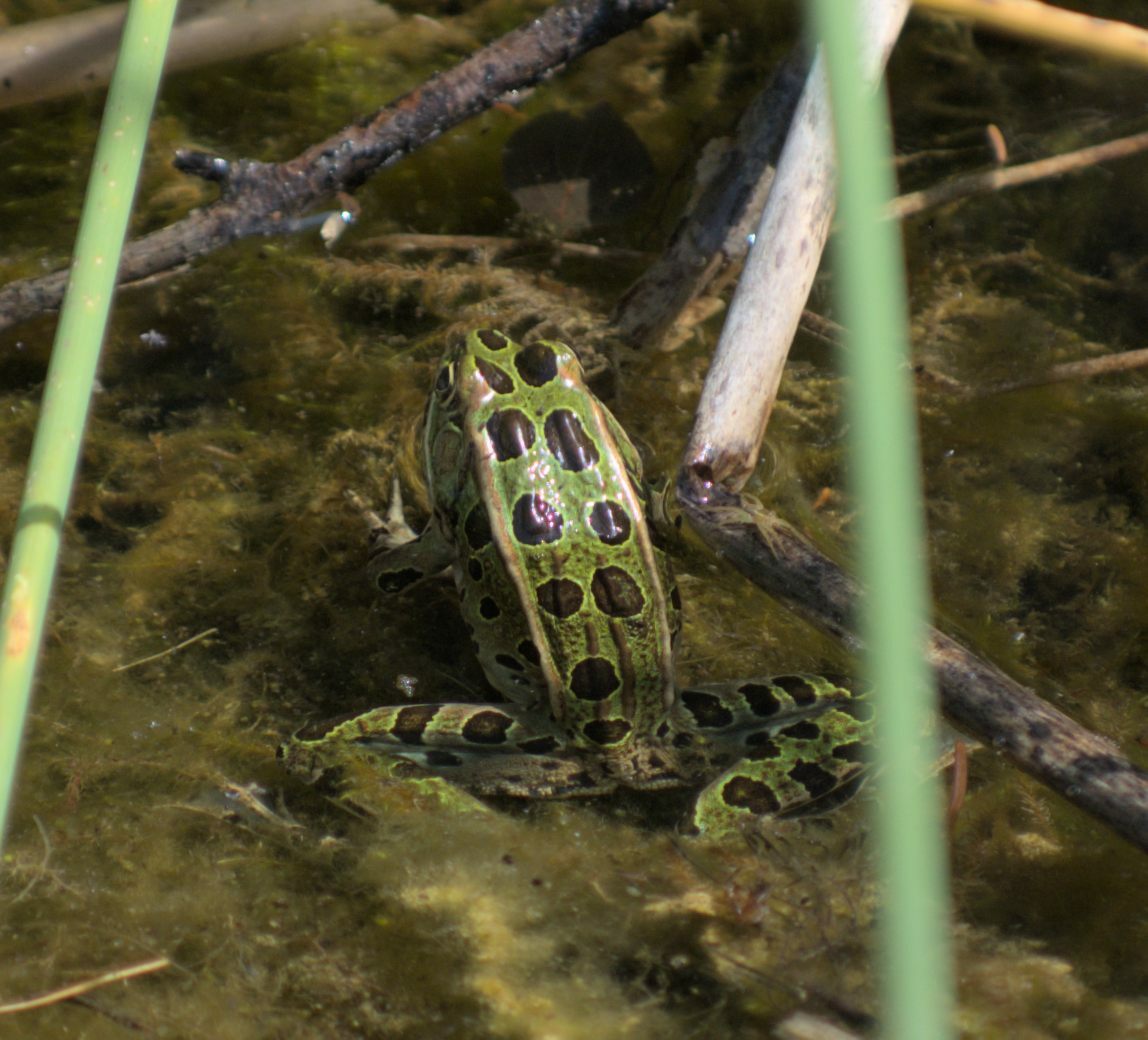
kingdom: Animalia
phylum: Chordata
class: Amphibia
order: Anura
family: Ranidae
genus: Lithobates
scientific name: Lithobates pipiens
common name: Northern leopard frog
